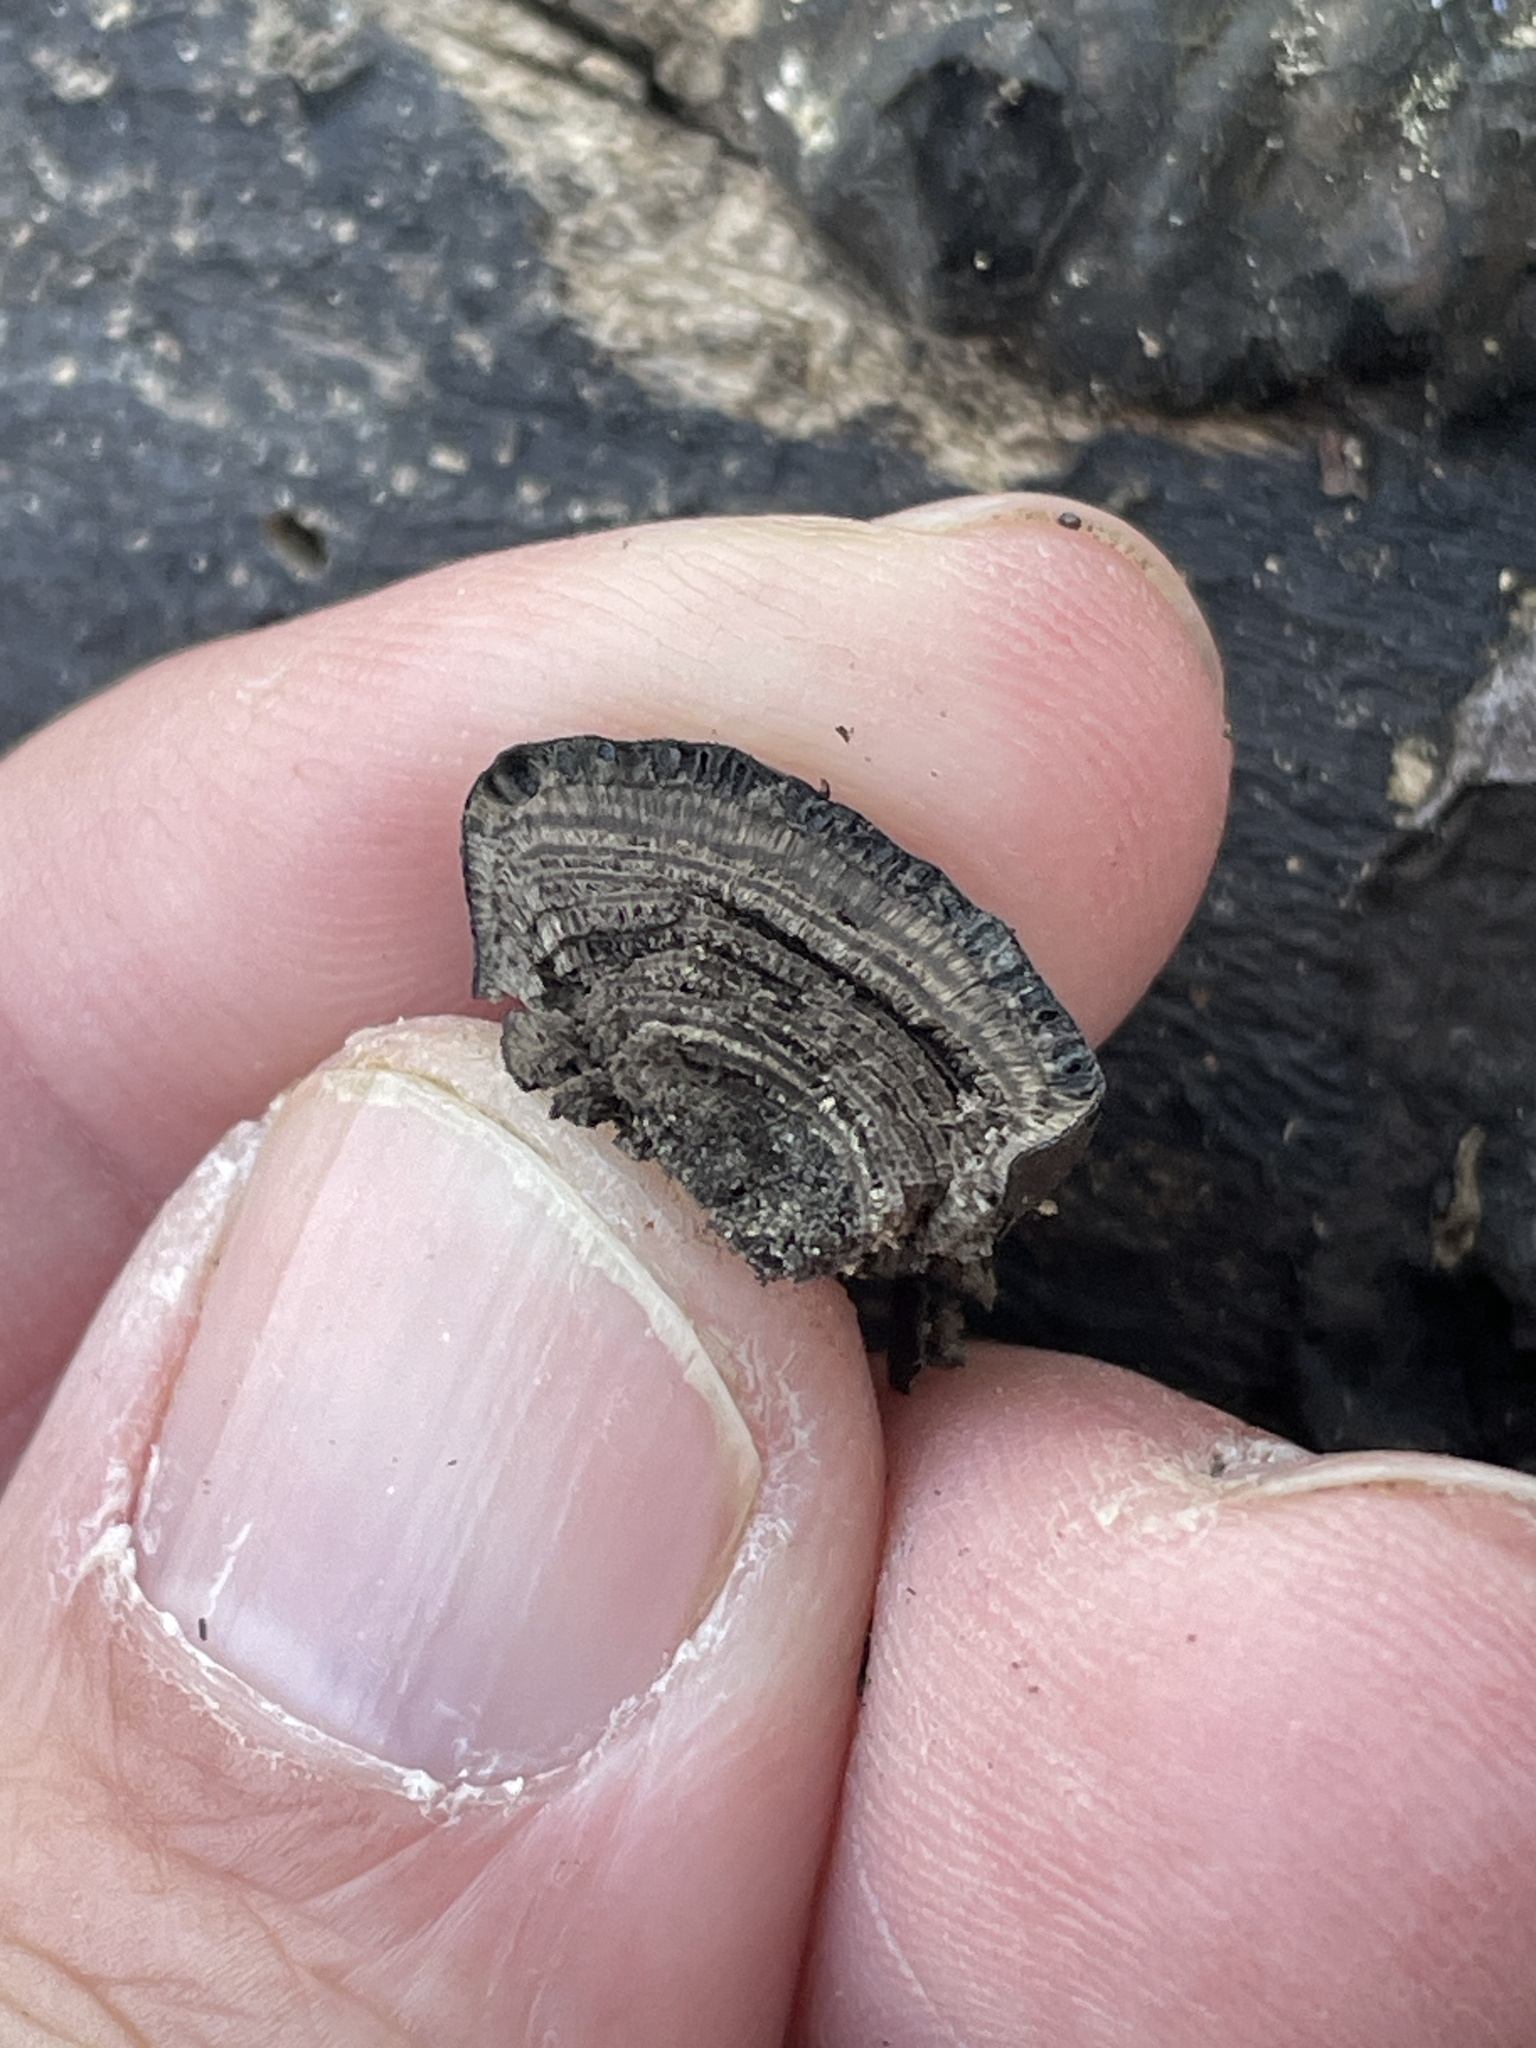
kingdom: Fungi
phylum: Ascomycota
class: Sordariomycetes
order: Xylariales
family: Hypoxylaceae
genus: Daldinia
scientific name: Daldinia
